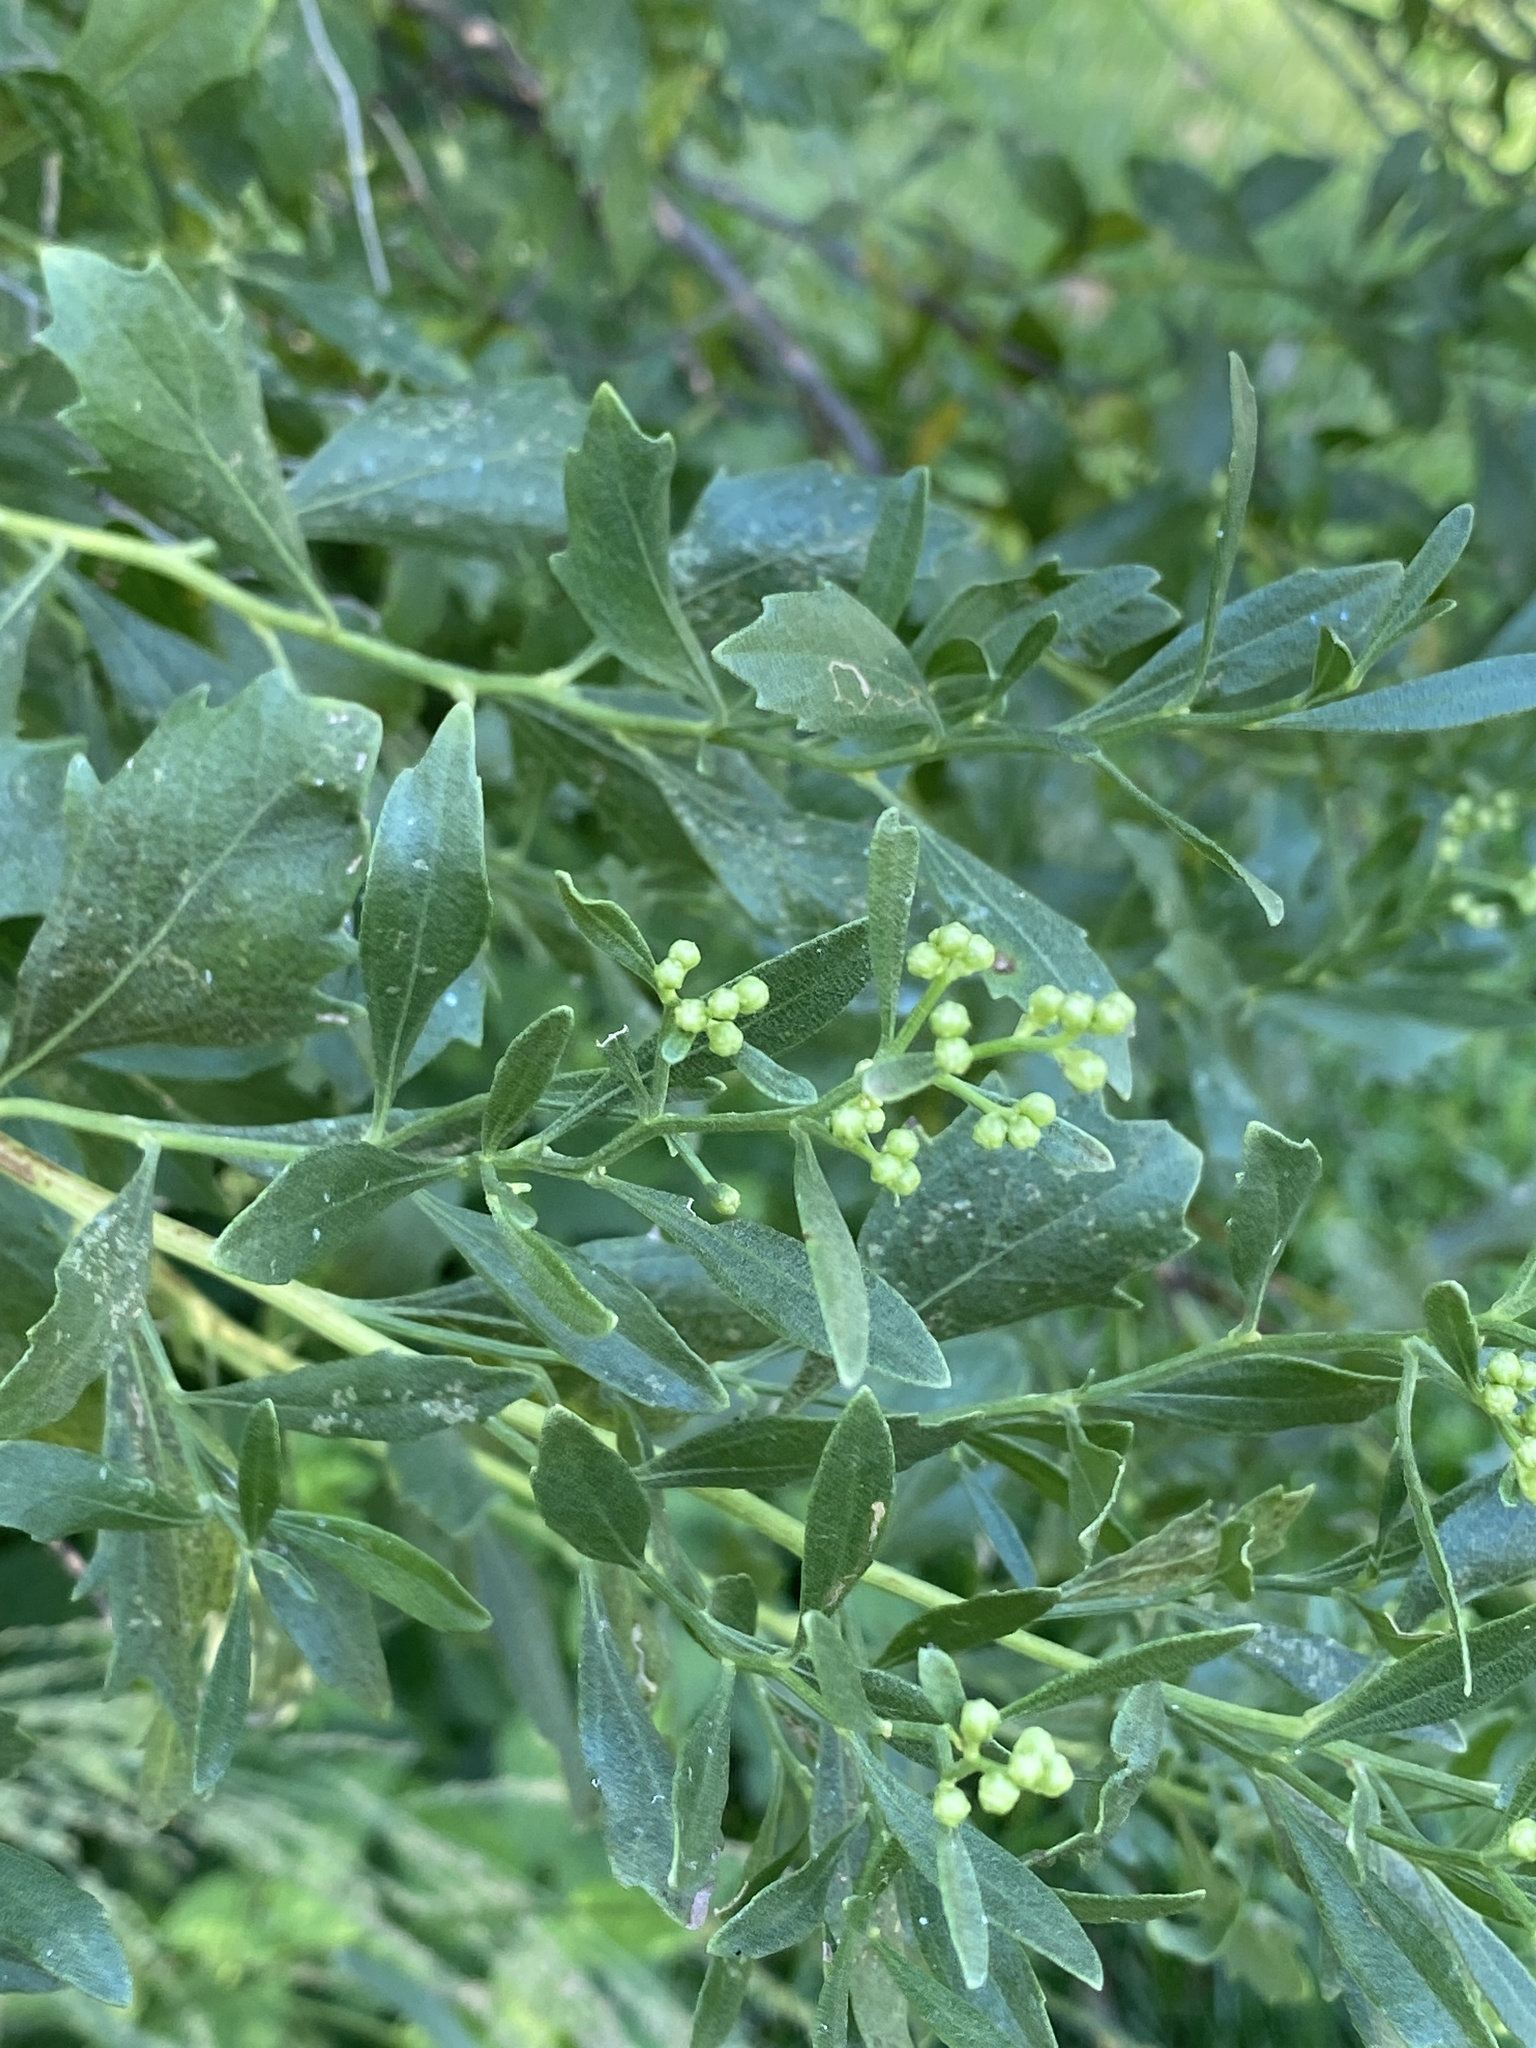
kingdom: Plantae
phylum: Tracheophyta
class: Magnoliopsida
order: Asterales
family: Asteraceae
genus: Baccharis
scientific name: Baccharis halimifolia
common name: Eastern baccharis
